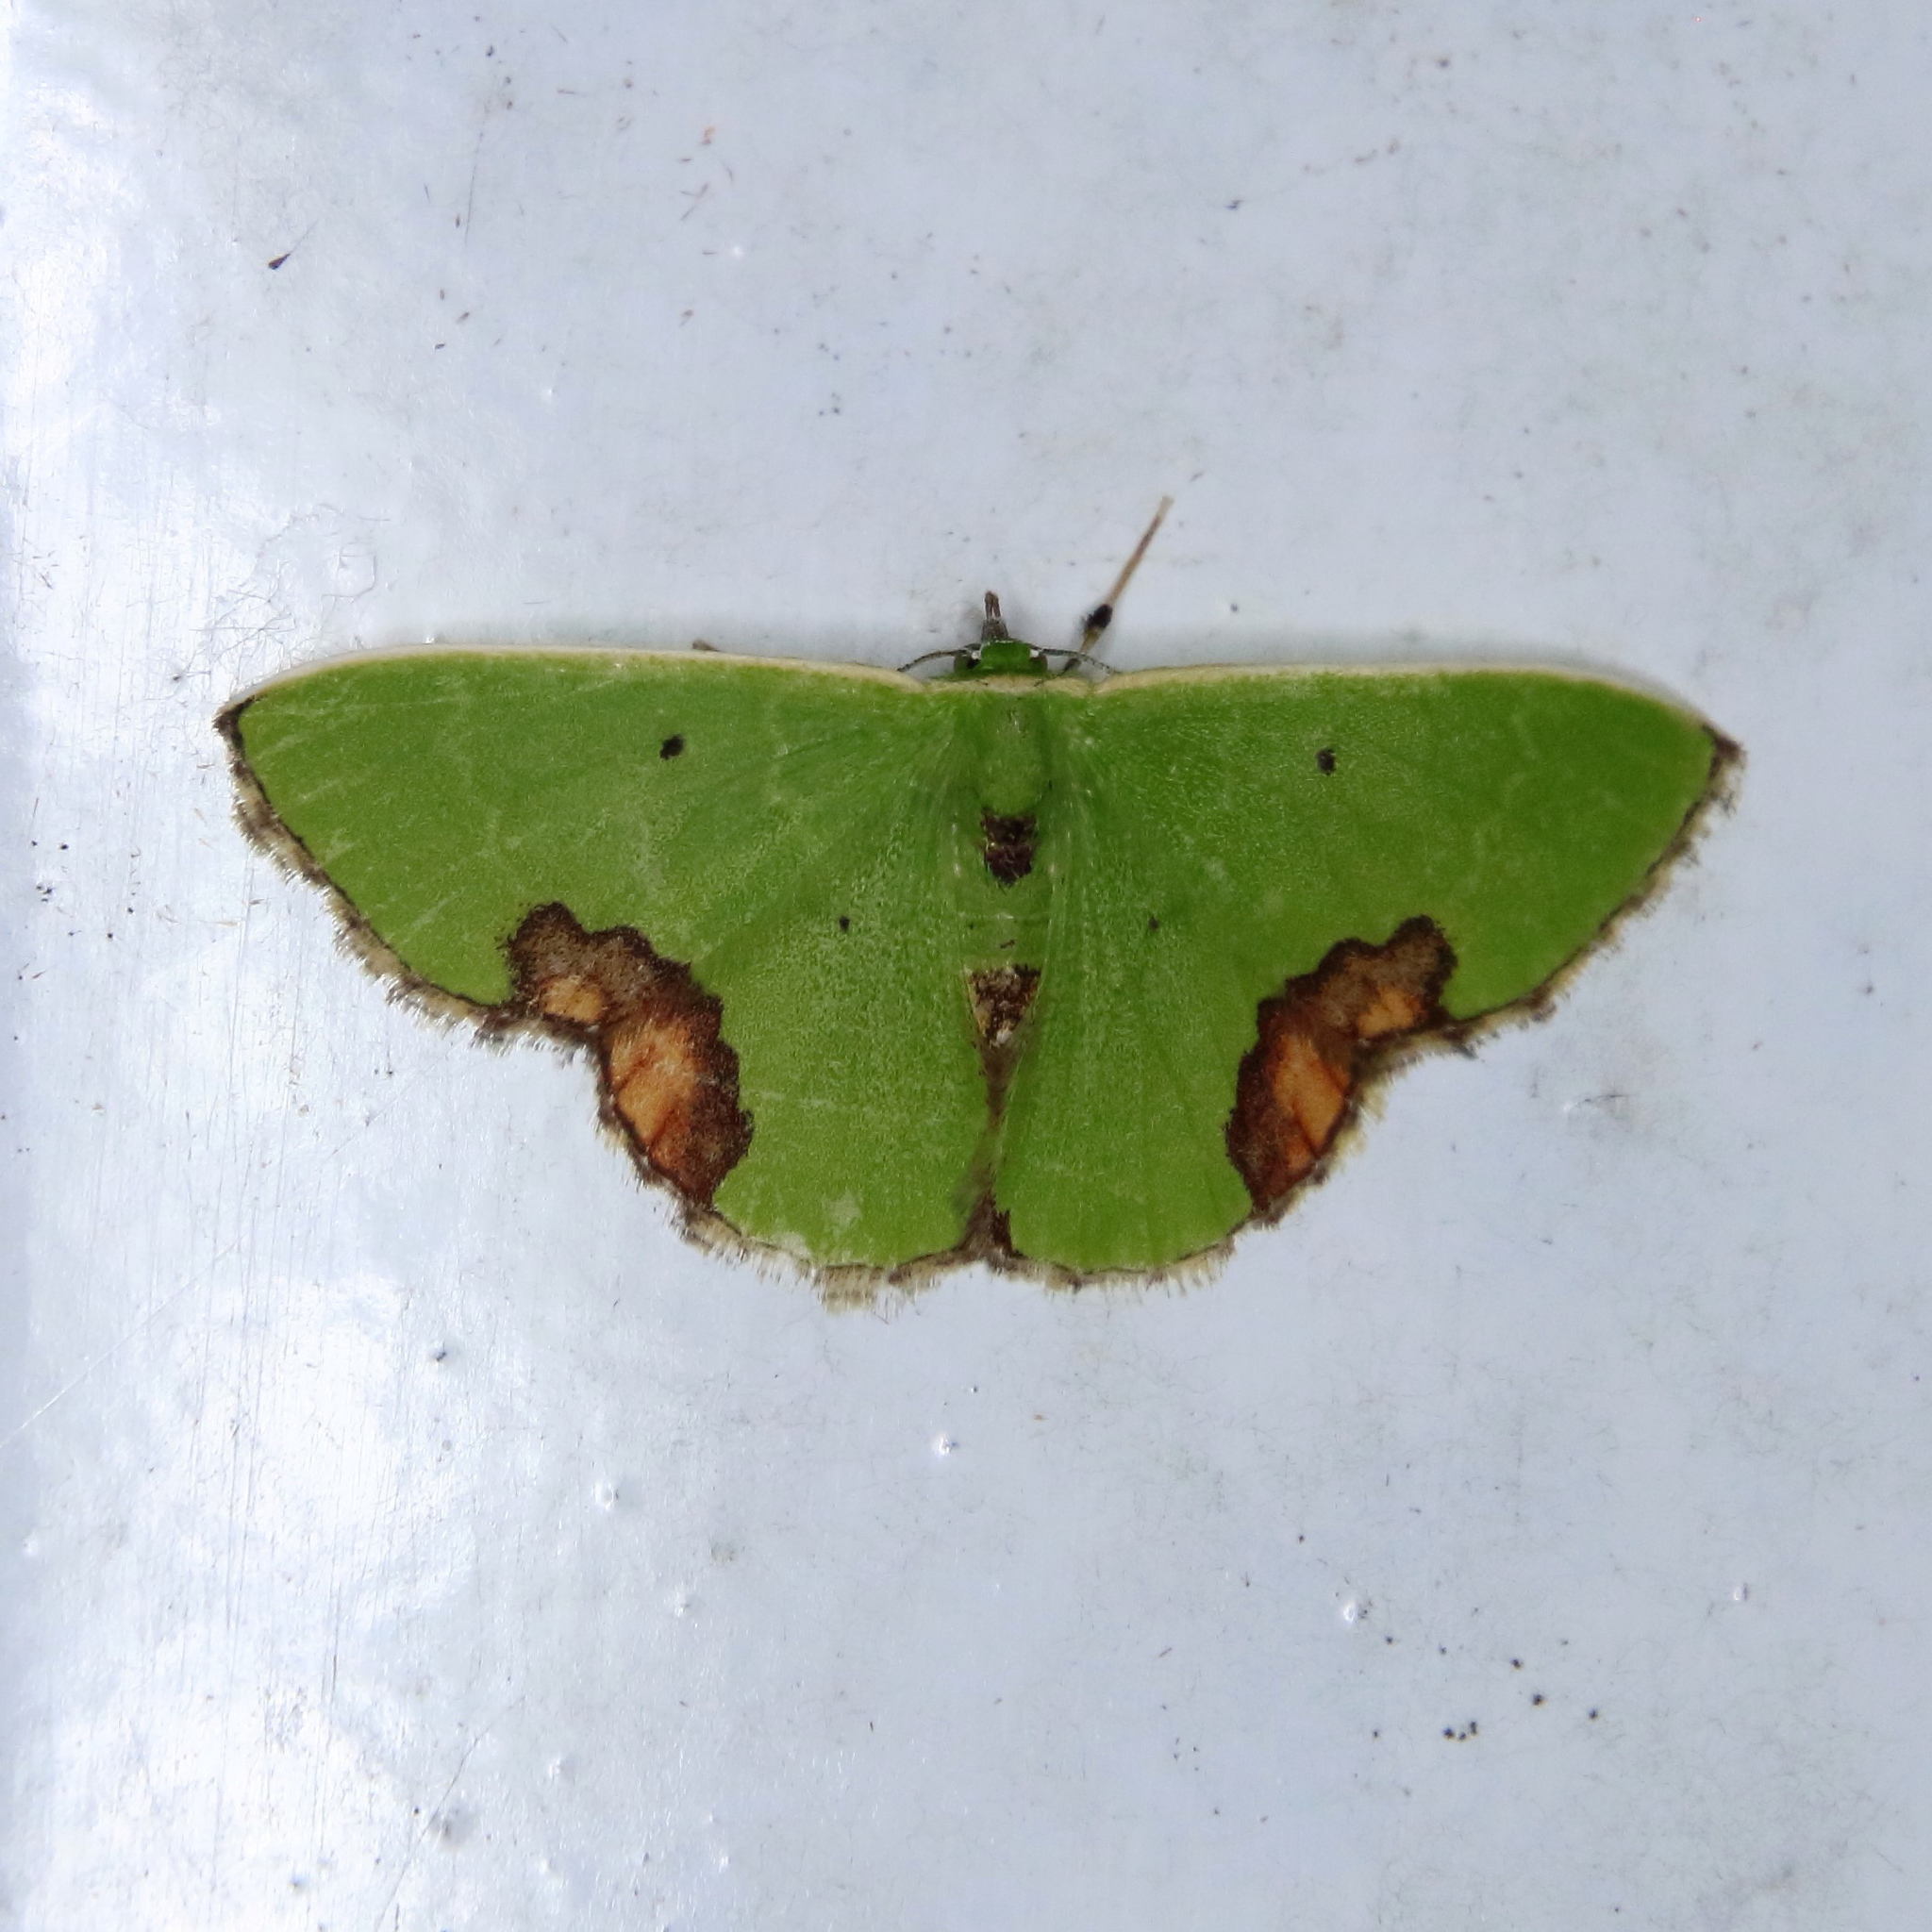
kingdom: Animalia
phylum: Arthropoda
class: Insecta
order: Lepidoptera
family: Geometridae
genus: Comibaena
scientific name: Comibaena biplaga
